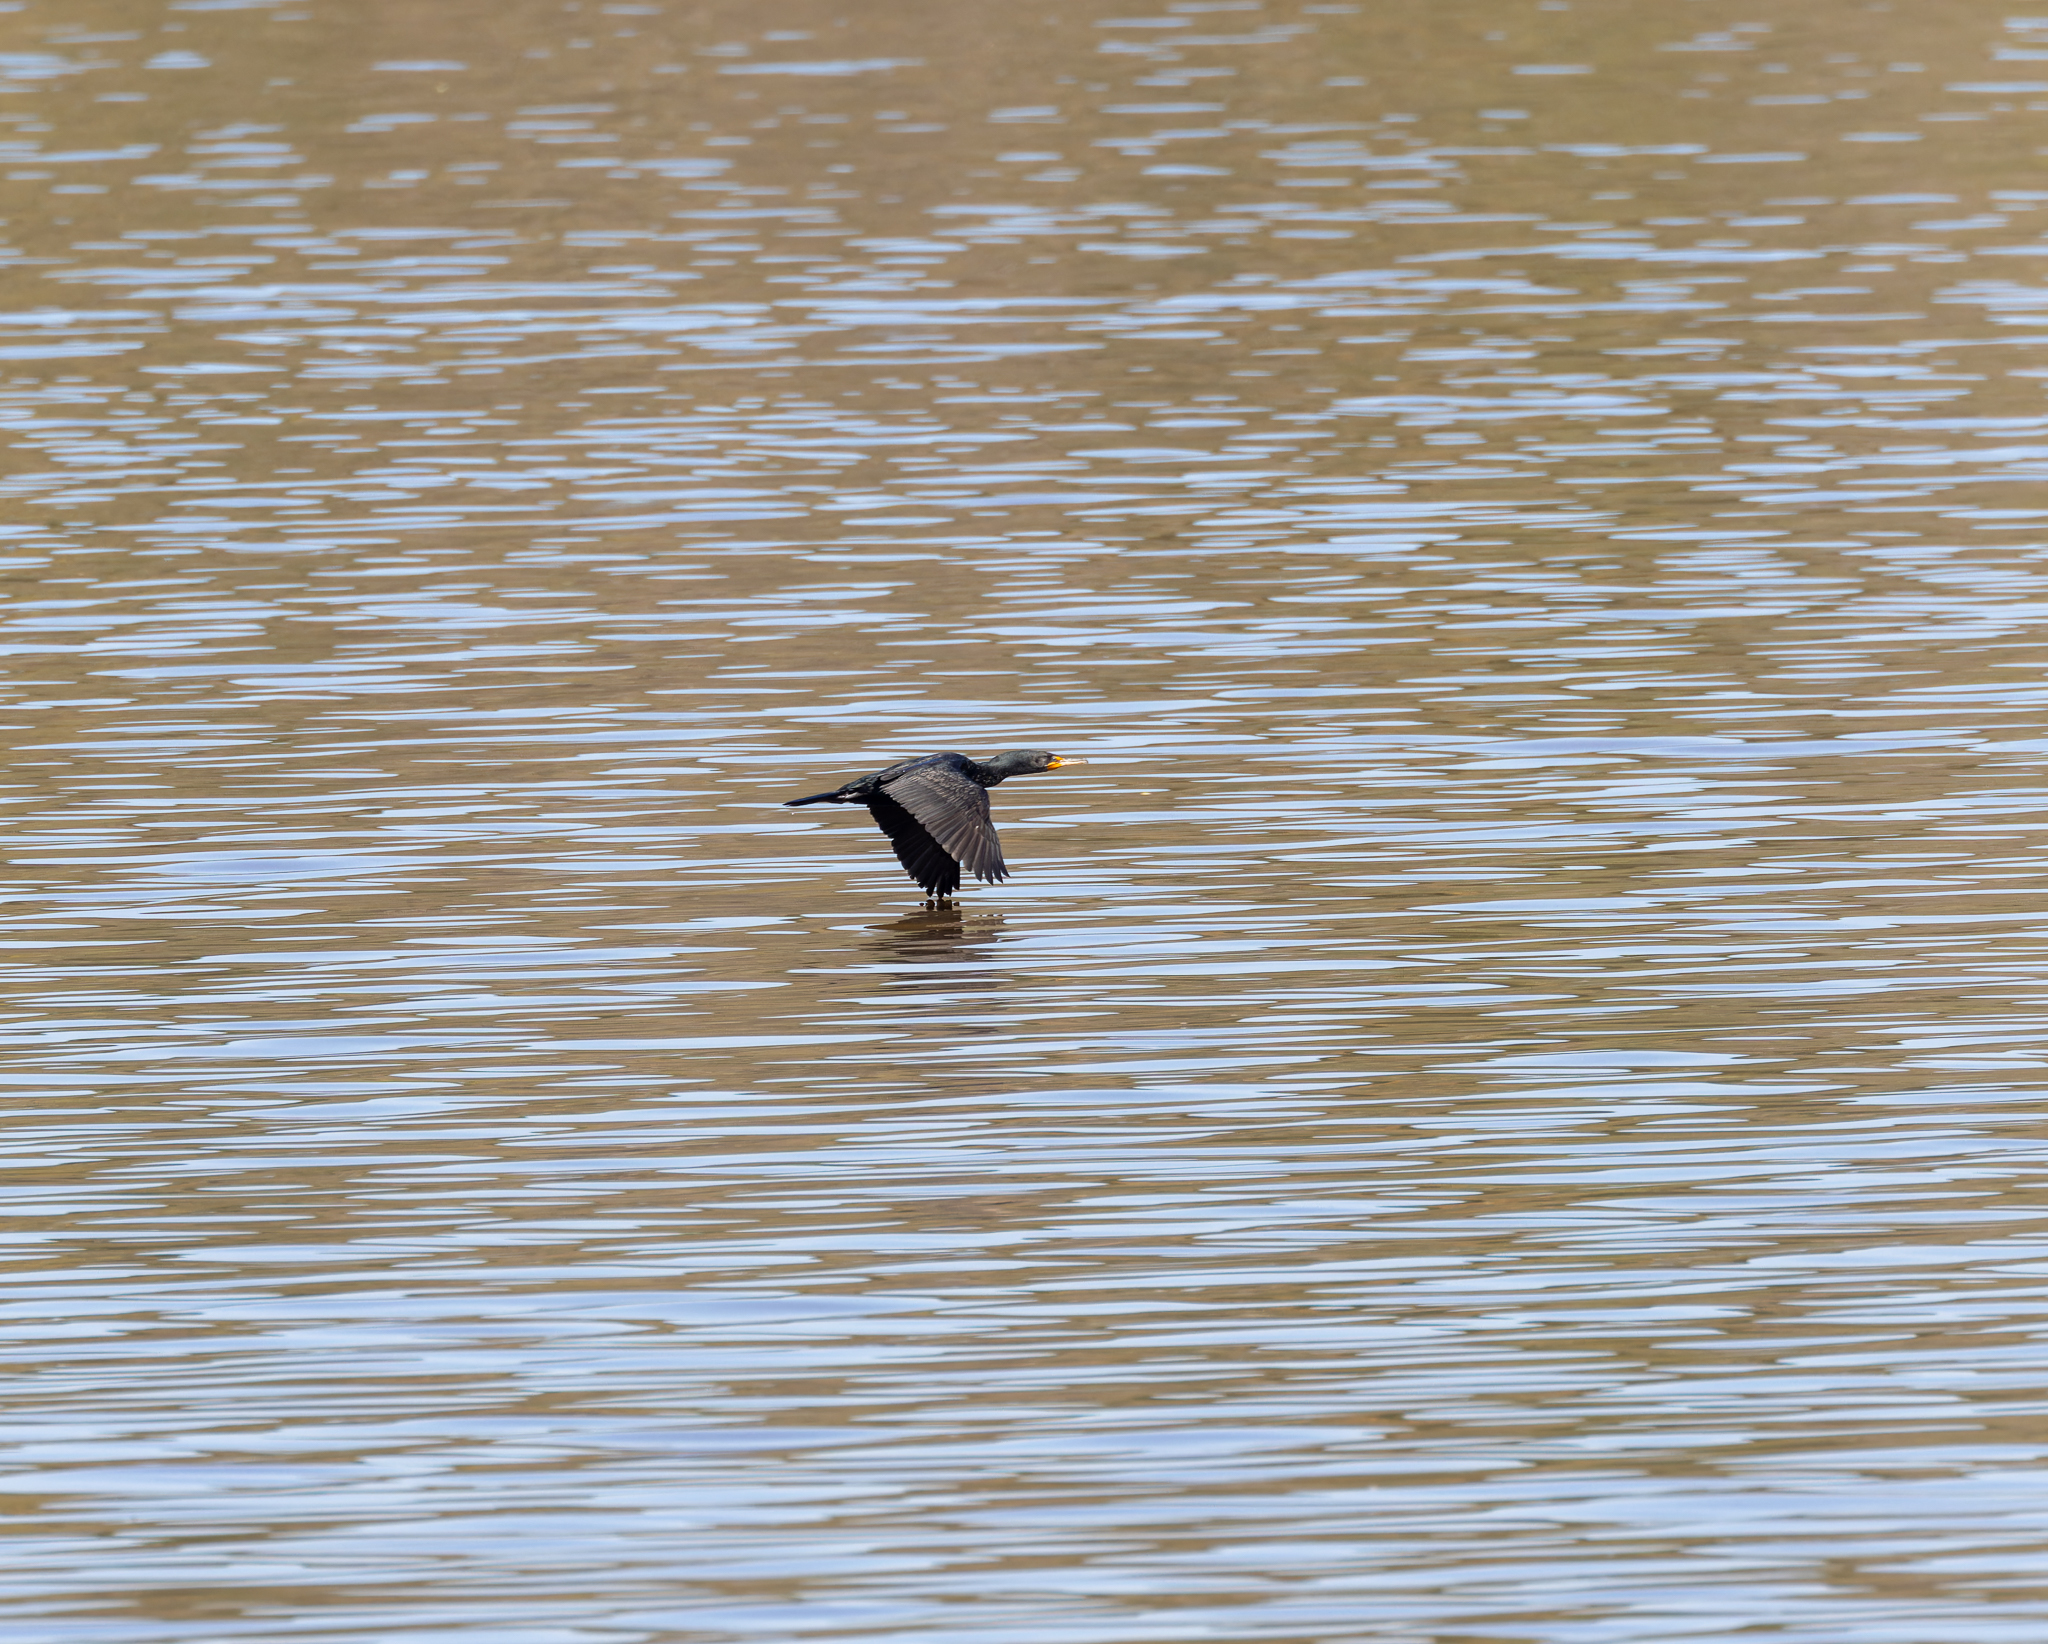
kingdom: Animalia
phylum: Chordata
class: Aves
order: Suliformes
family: Phalacrocoracidae
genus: Phalacrocorax
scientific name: Phalacrocorax auritus
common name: Double-crested cormorant
